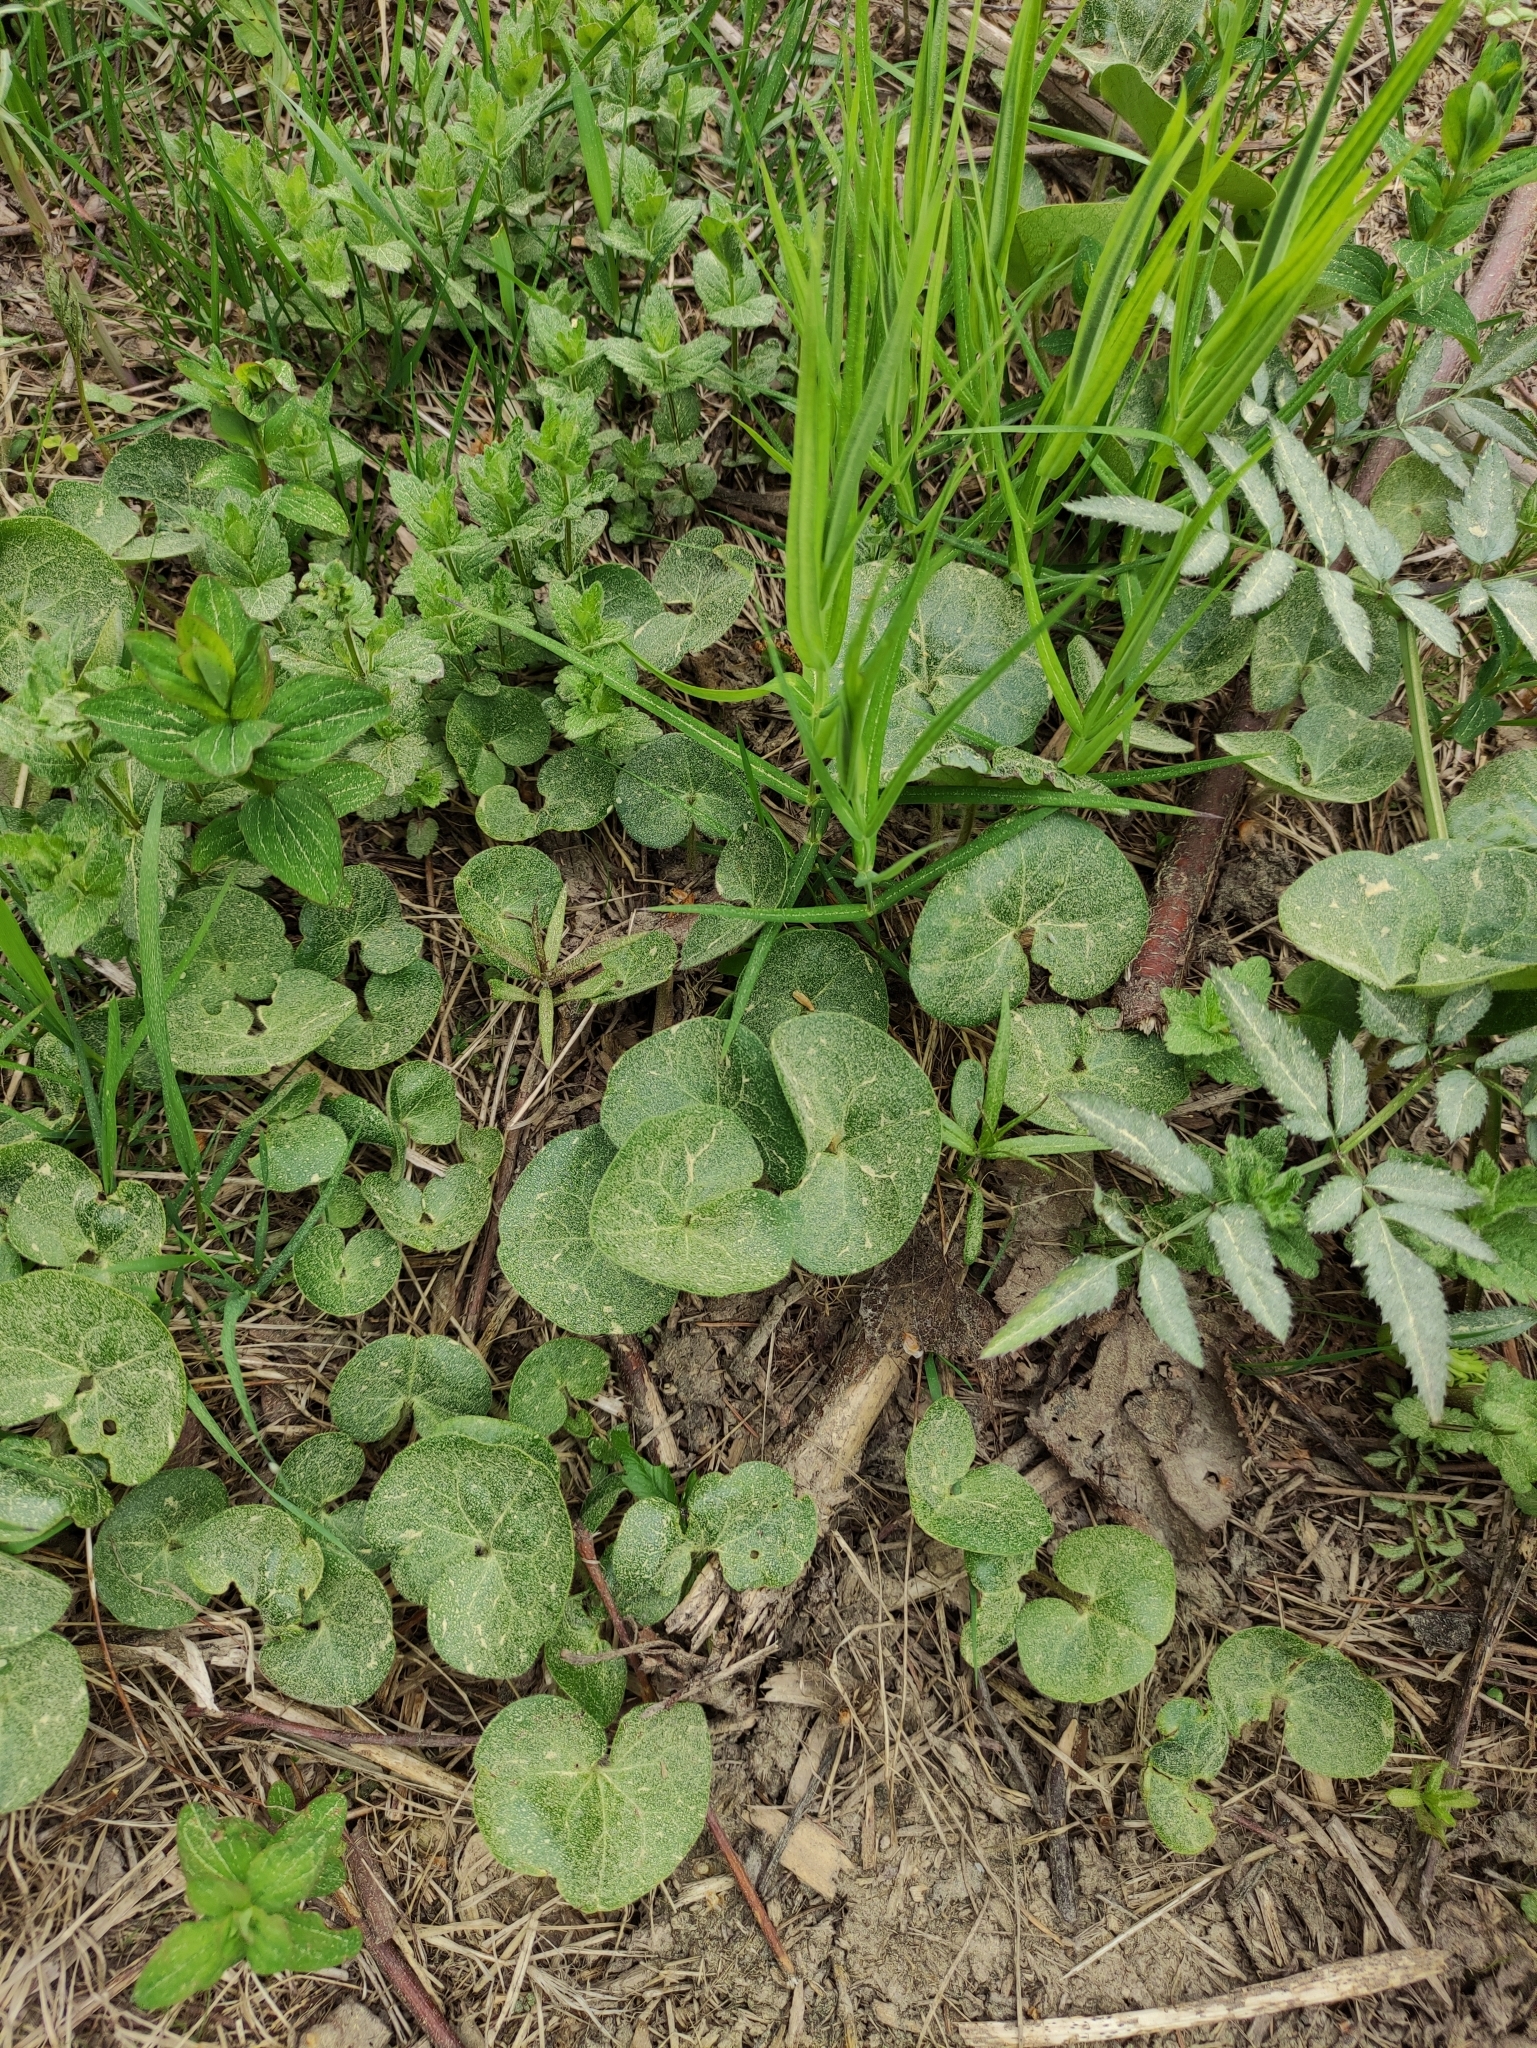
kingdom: Plantae
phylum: Tracheophyta
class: Magnoliopsida
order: Piperales
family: Aristolochiaceae
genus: Asarum
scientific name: Asarum europaeum
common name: Asarabacca
